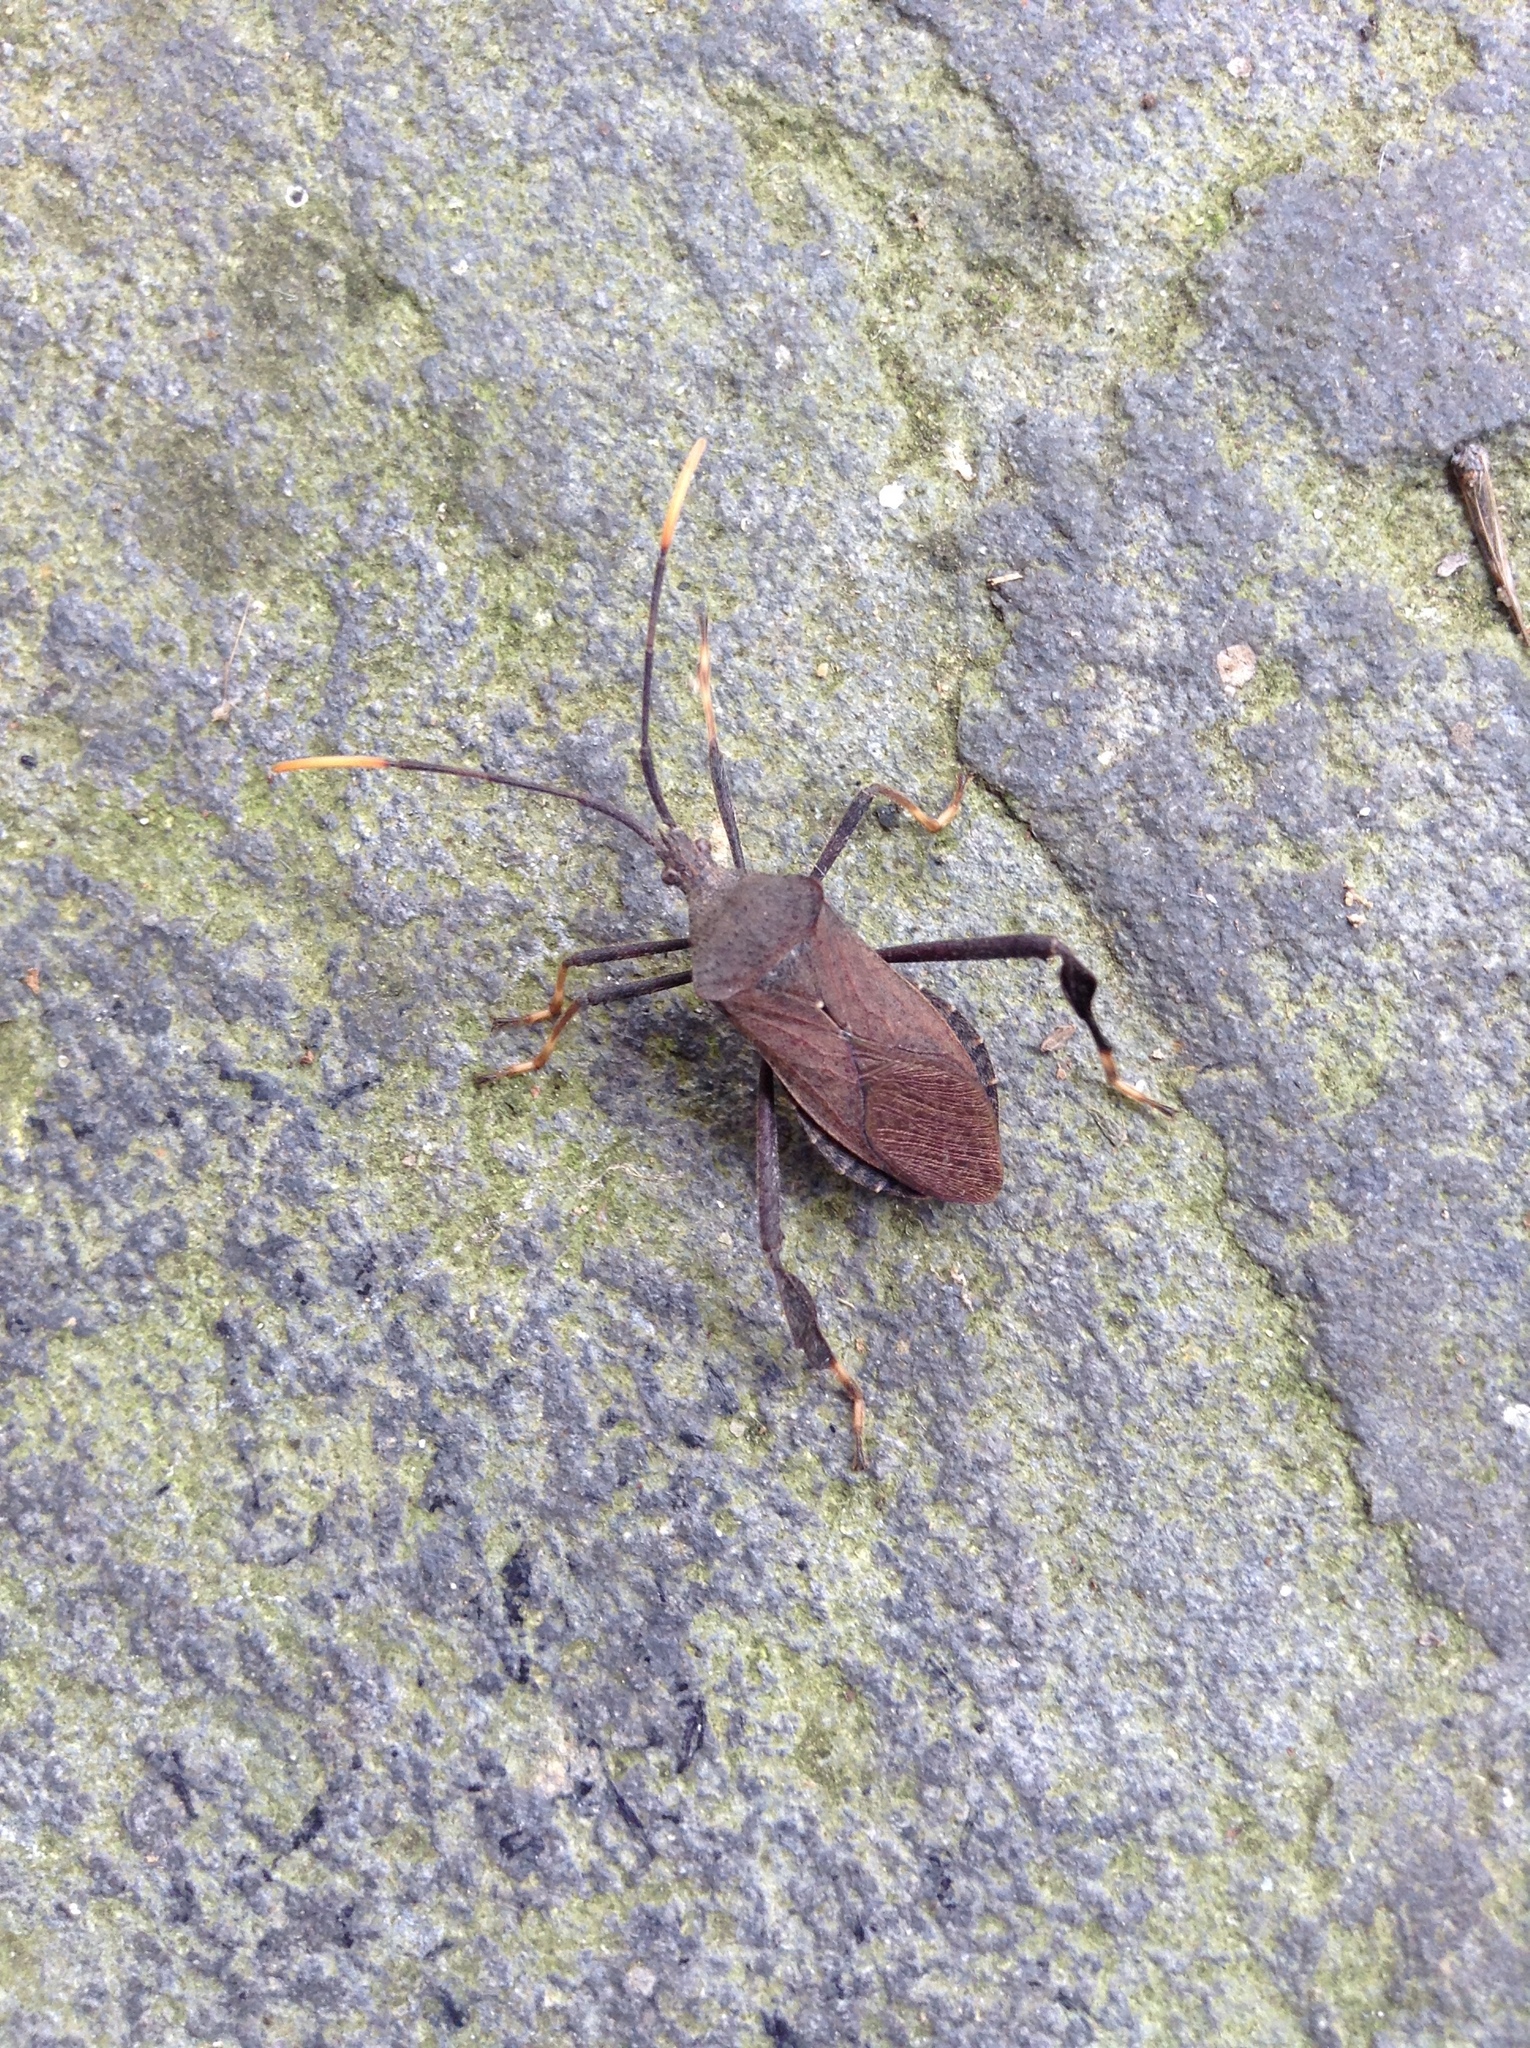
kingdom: Animalia
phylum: Arthropoda
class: Insecta
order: Hemiptera
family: Coreidae
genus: Acanthocephala
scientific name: Acanthocephala terminalis
